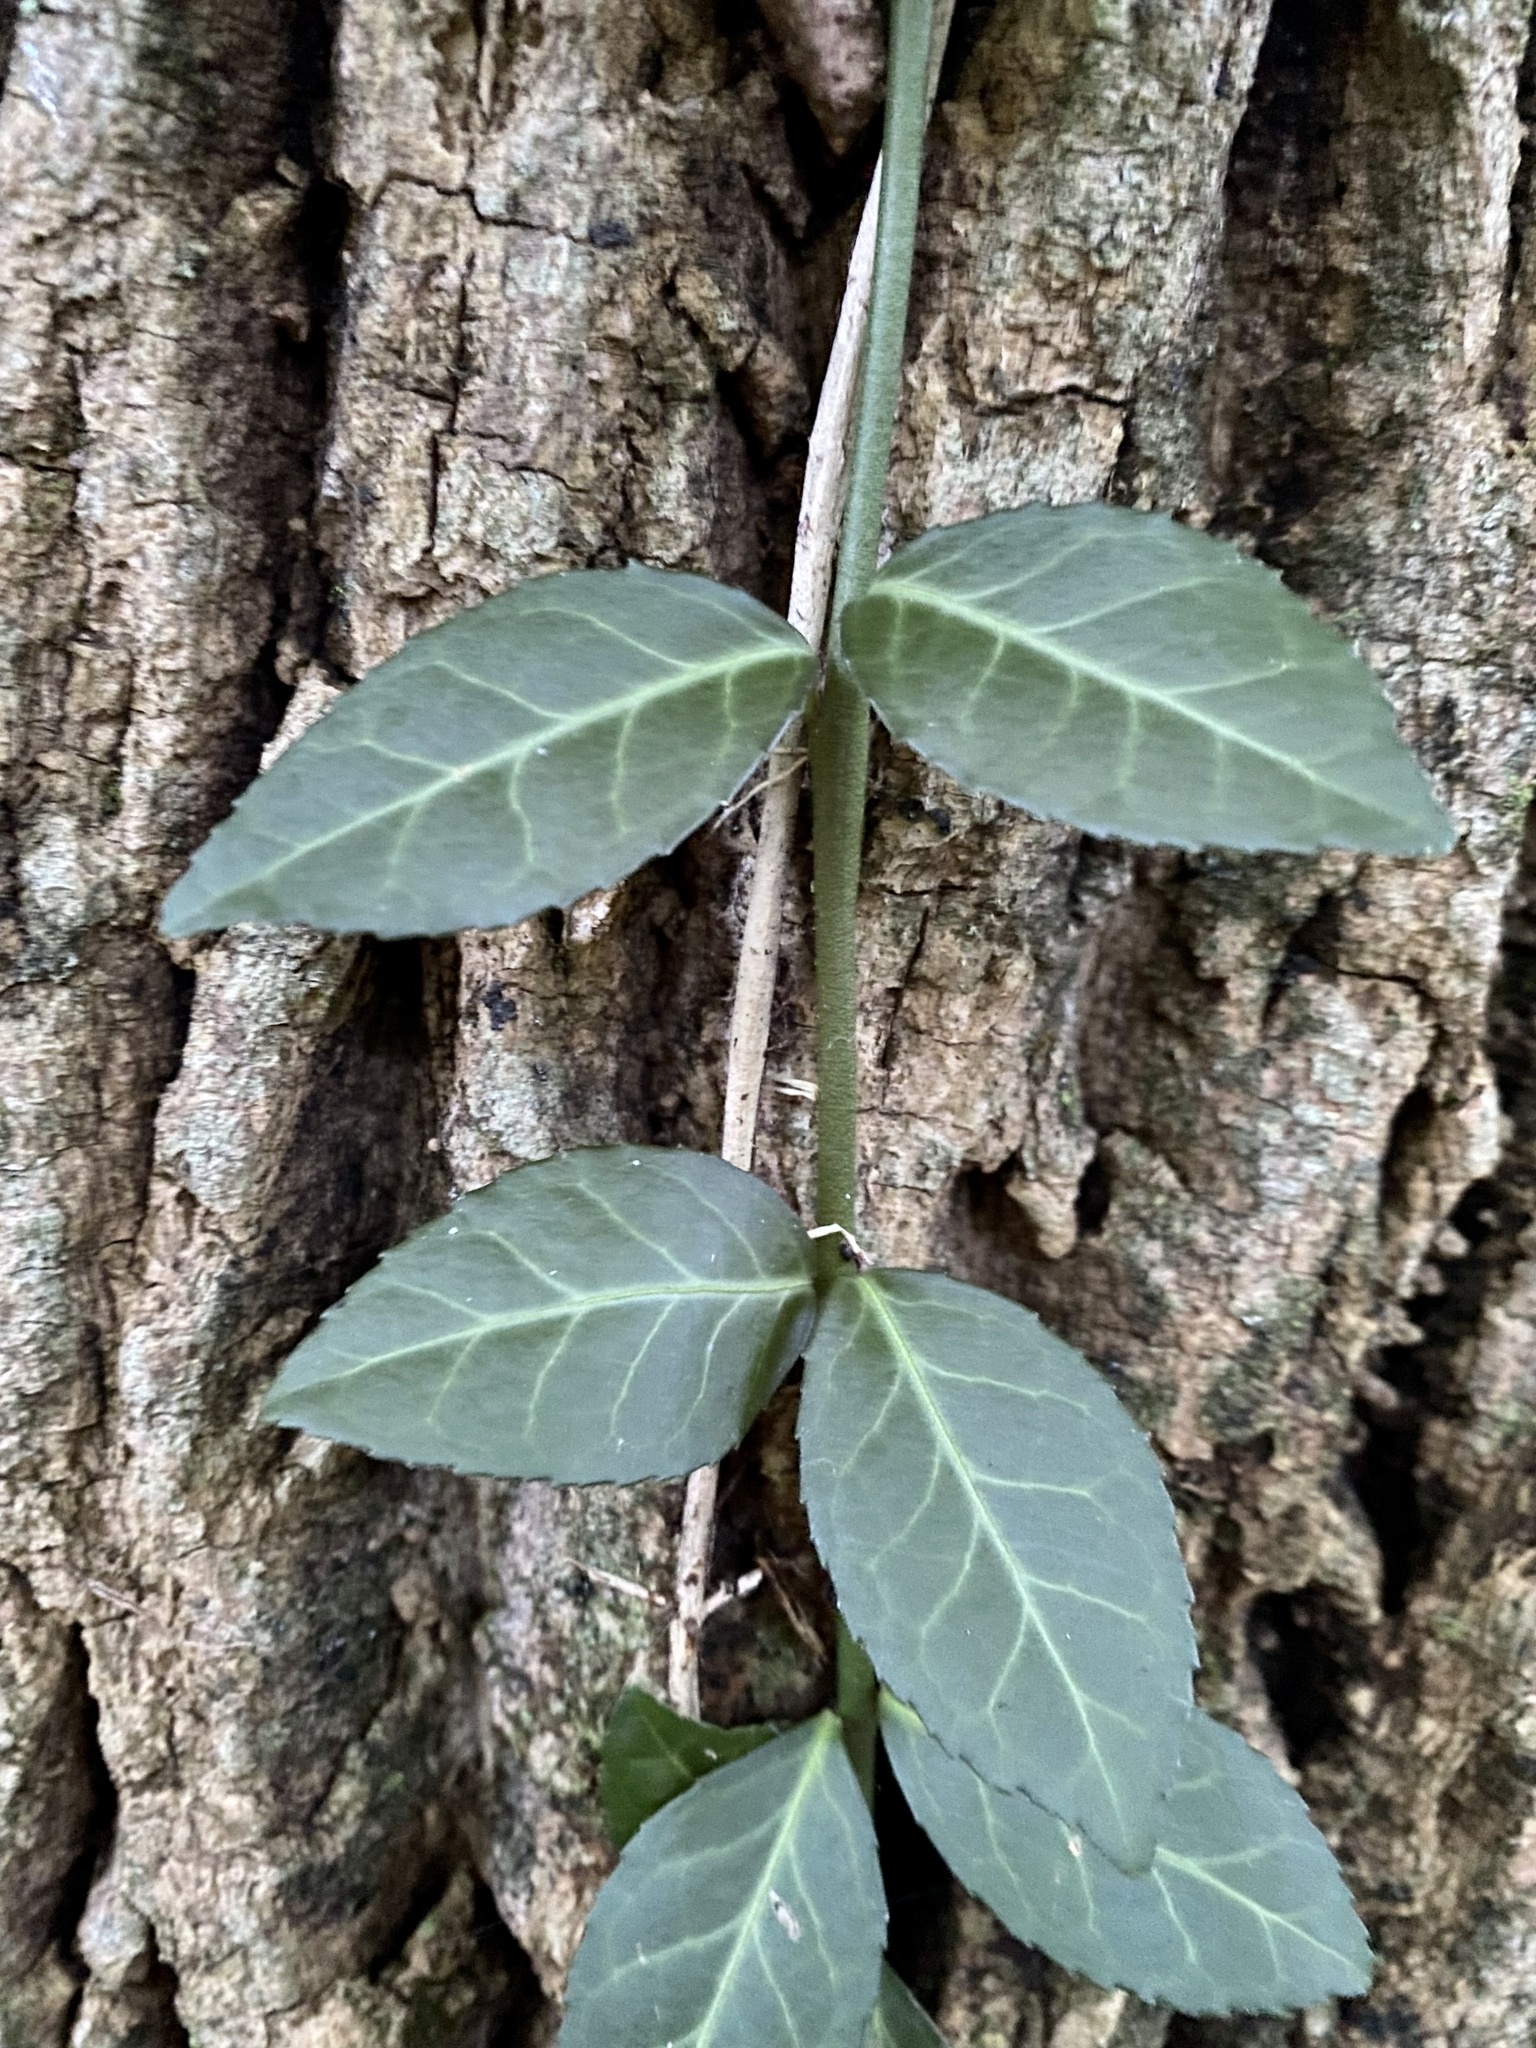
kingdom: Plantae
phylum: Tracheophyta
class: Magnoliopsida
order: Celastrales
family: Celastraceae
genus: Euonymus
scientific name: Euonymus fortunei
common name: Climbing euonymus
